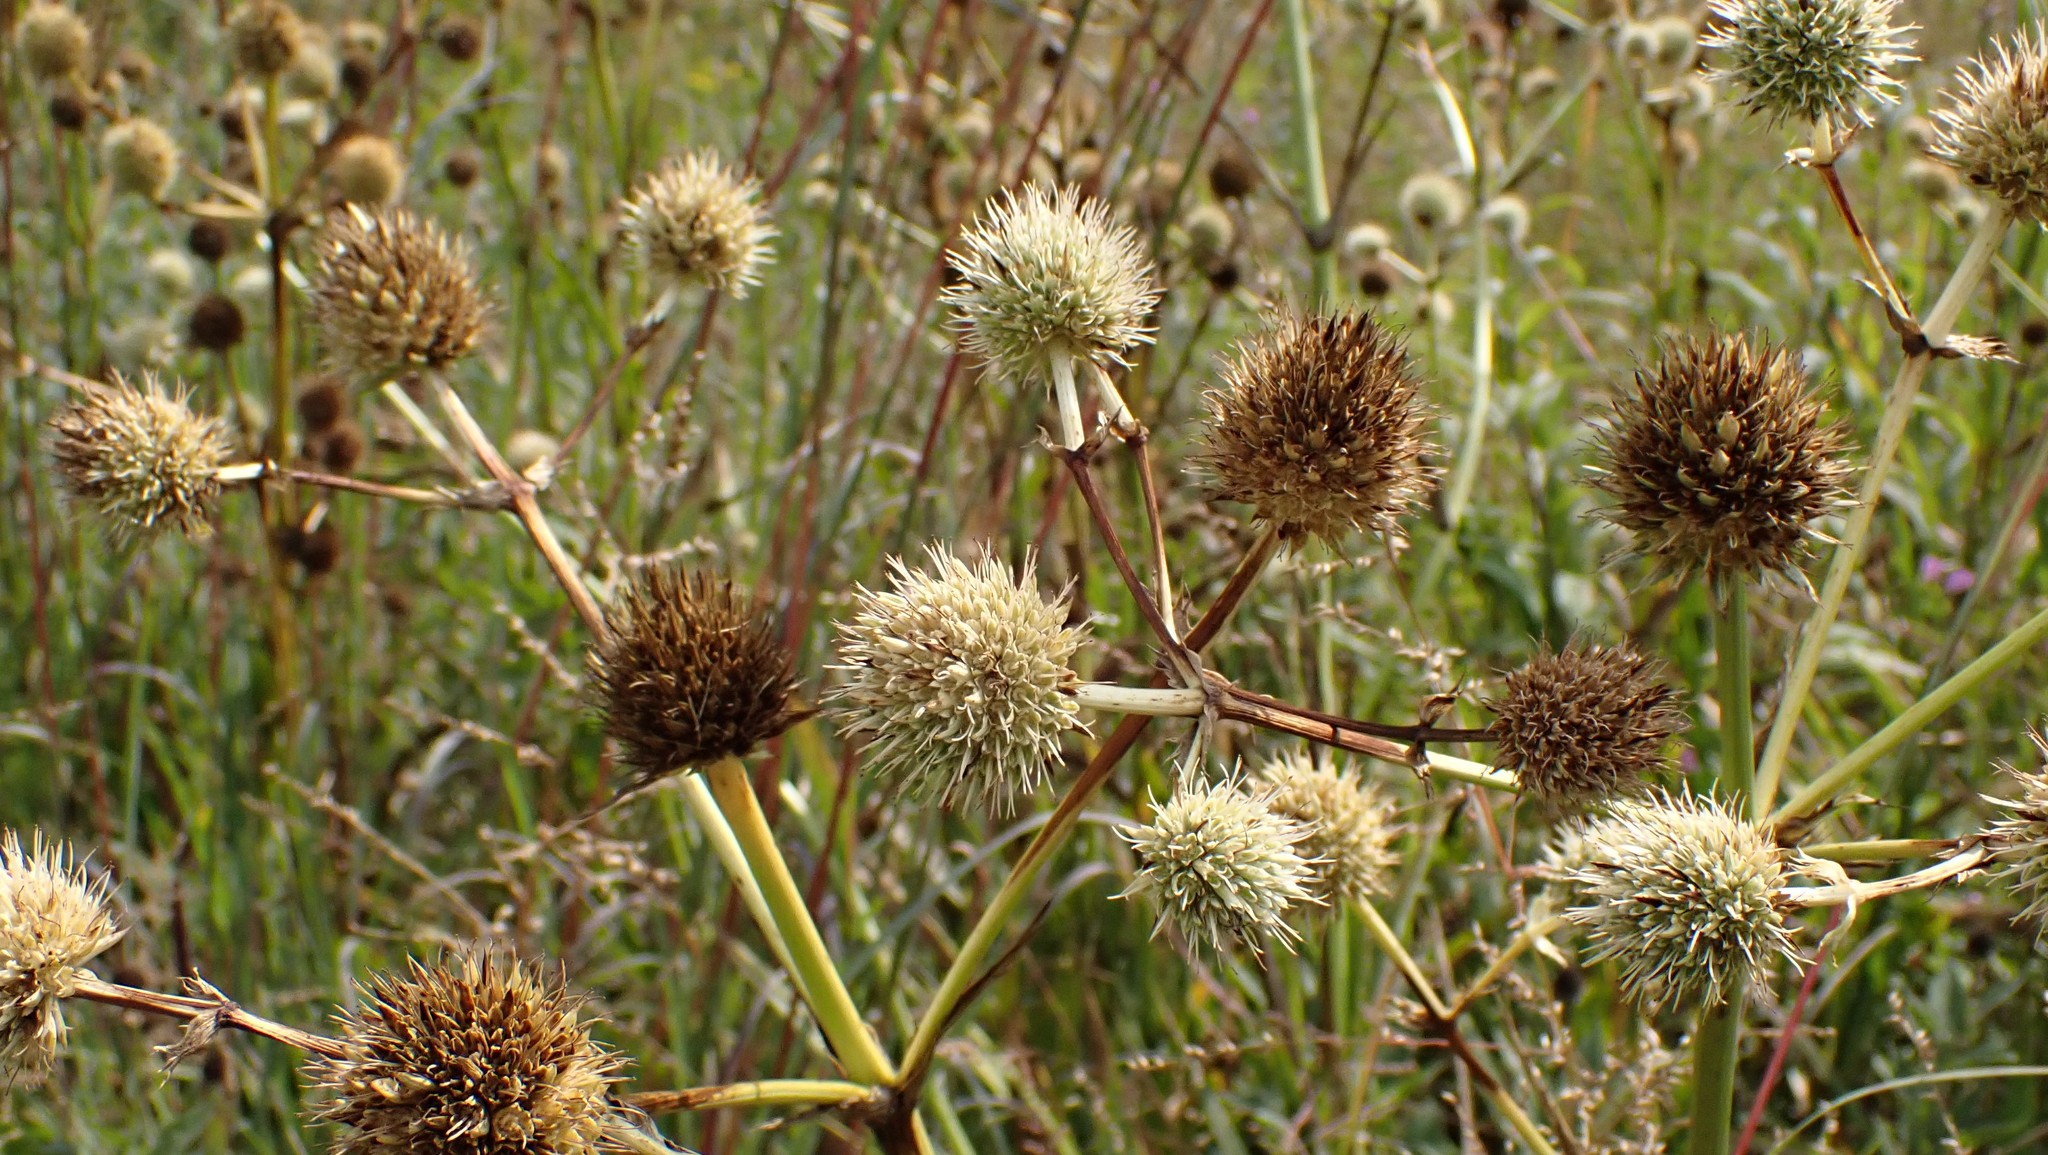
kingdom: Plantae
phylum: Tracheophyta
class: Magnoliopsida
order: Apiales
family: Apiaceae
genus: Eryngium
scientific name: Eryngium yuccifolium
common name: Button eryngo
